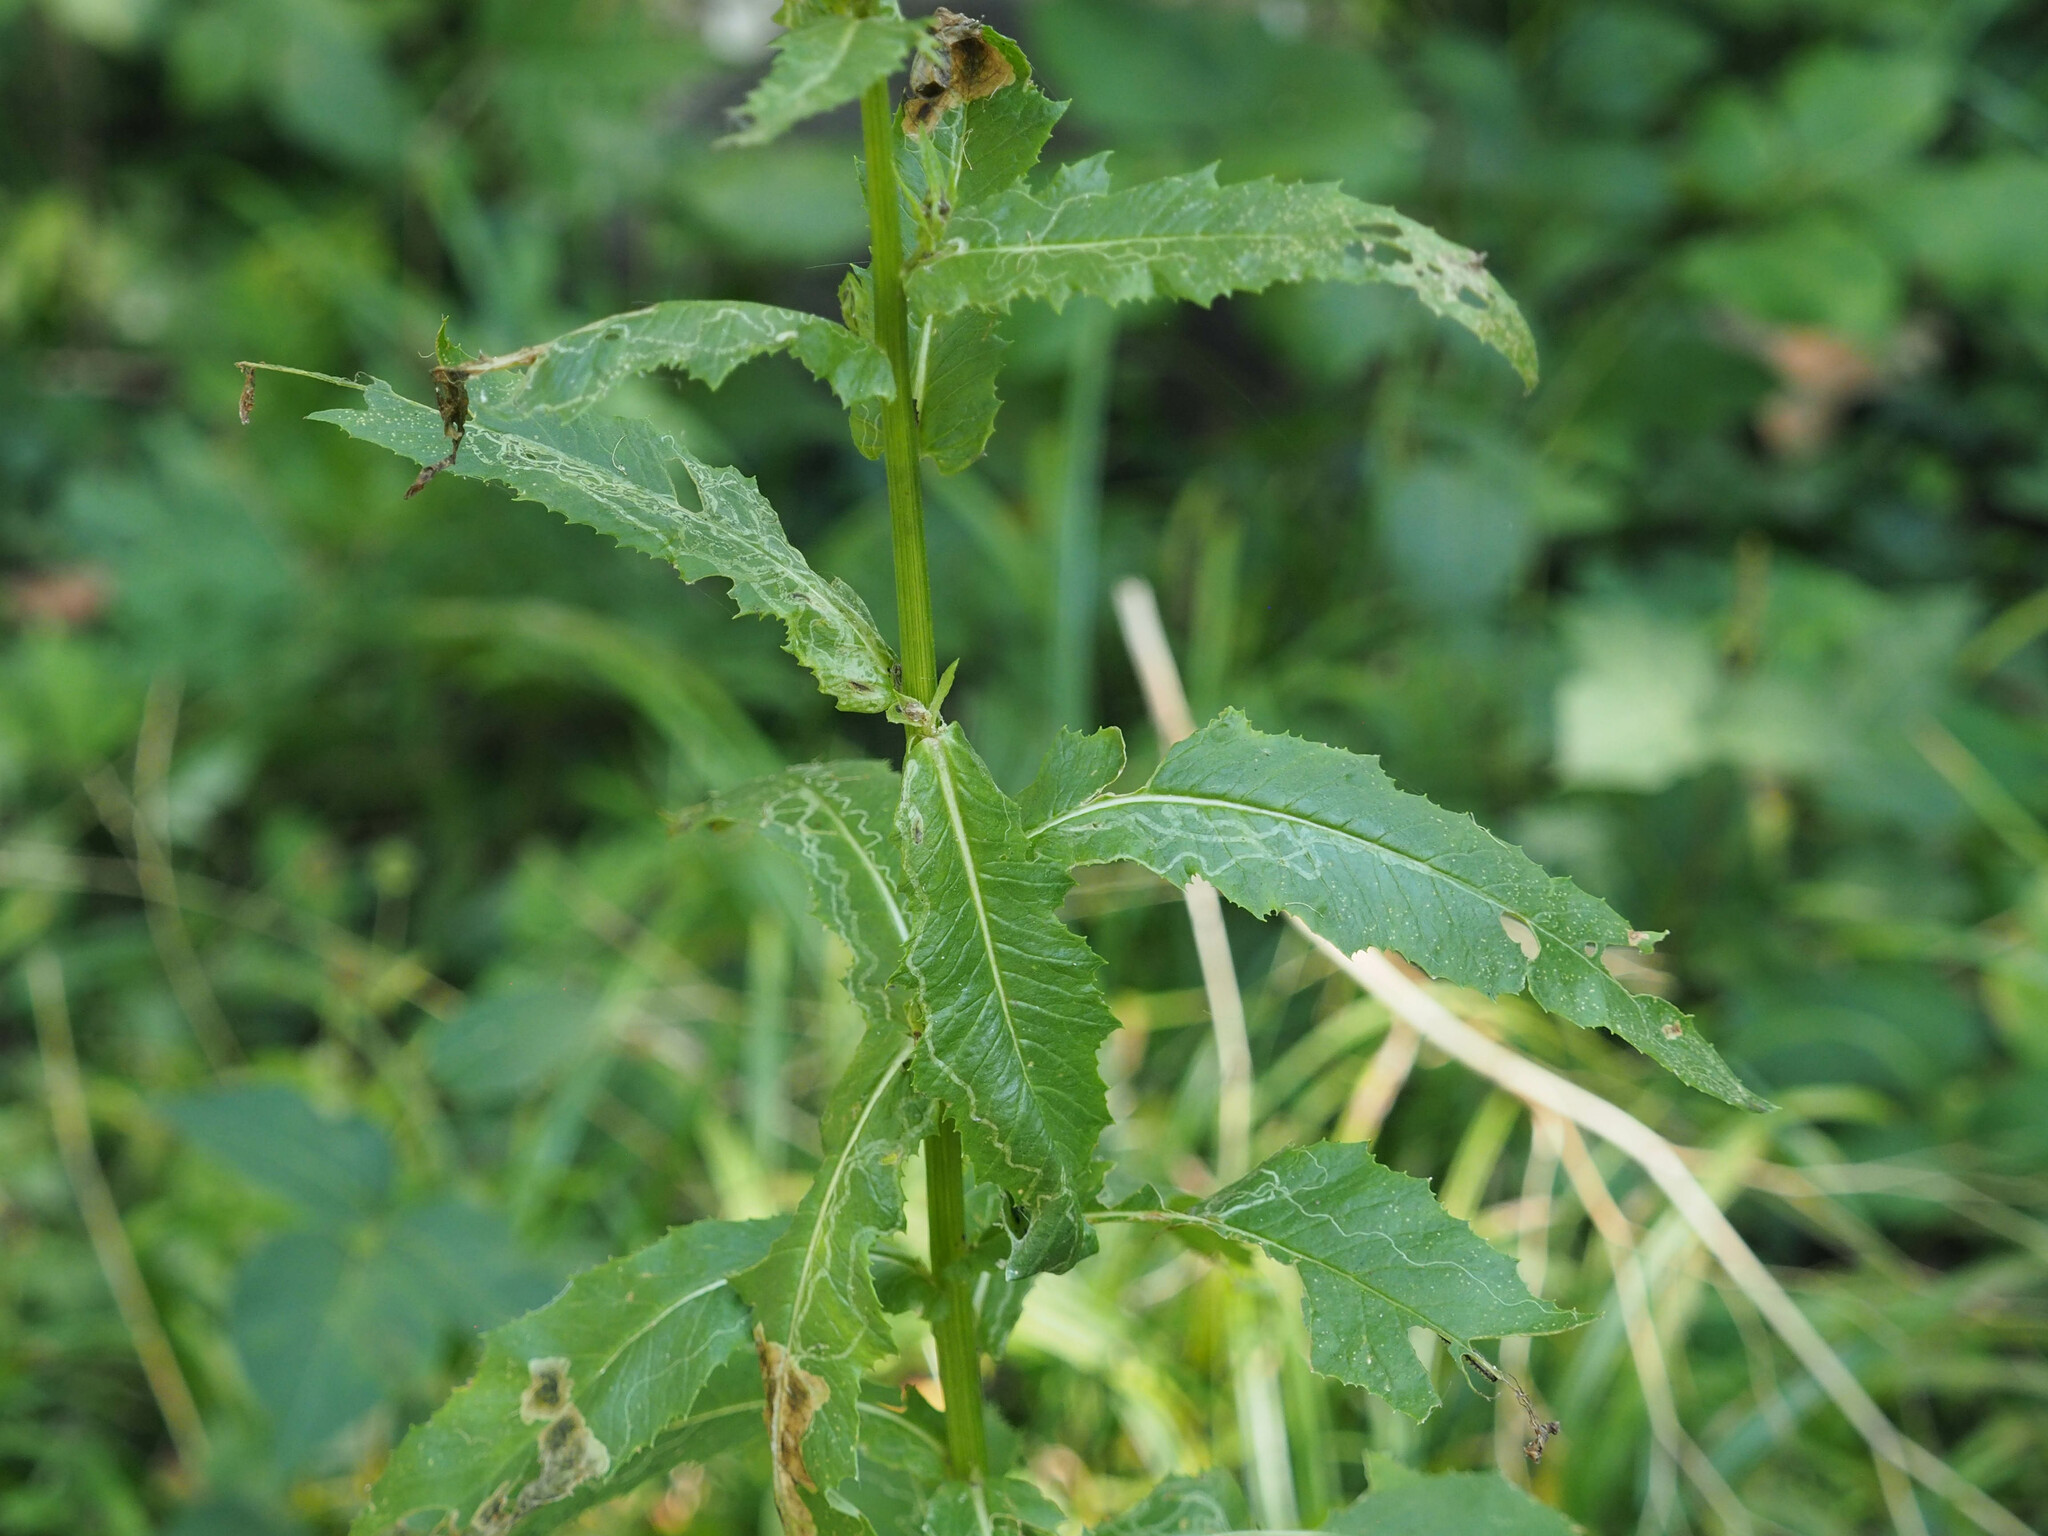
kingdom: Plantae
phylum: Tracheophyta
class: Magnoliopsida
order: Asterales
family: Asteraceae
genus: Erechtites
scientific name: Erechtites hieraciifolius
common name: American burnweed
